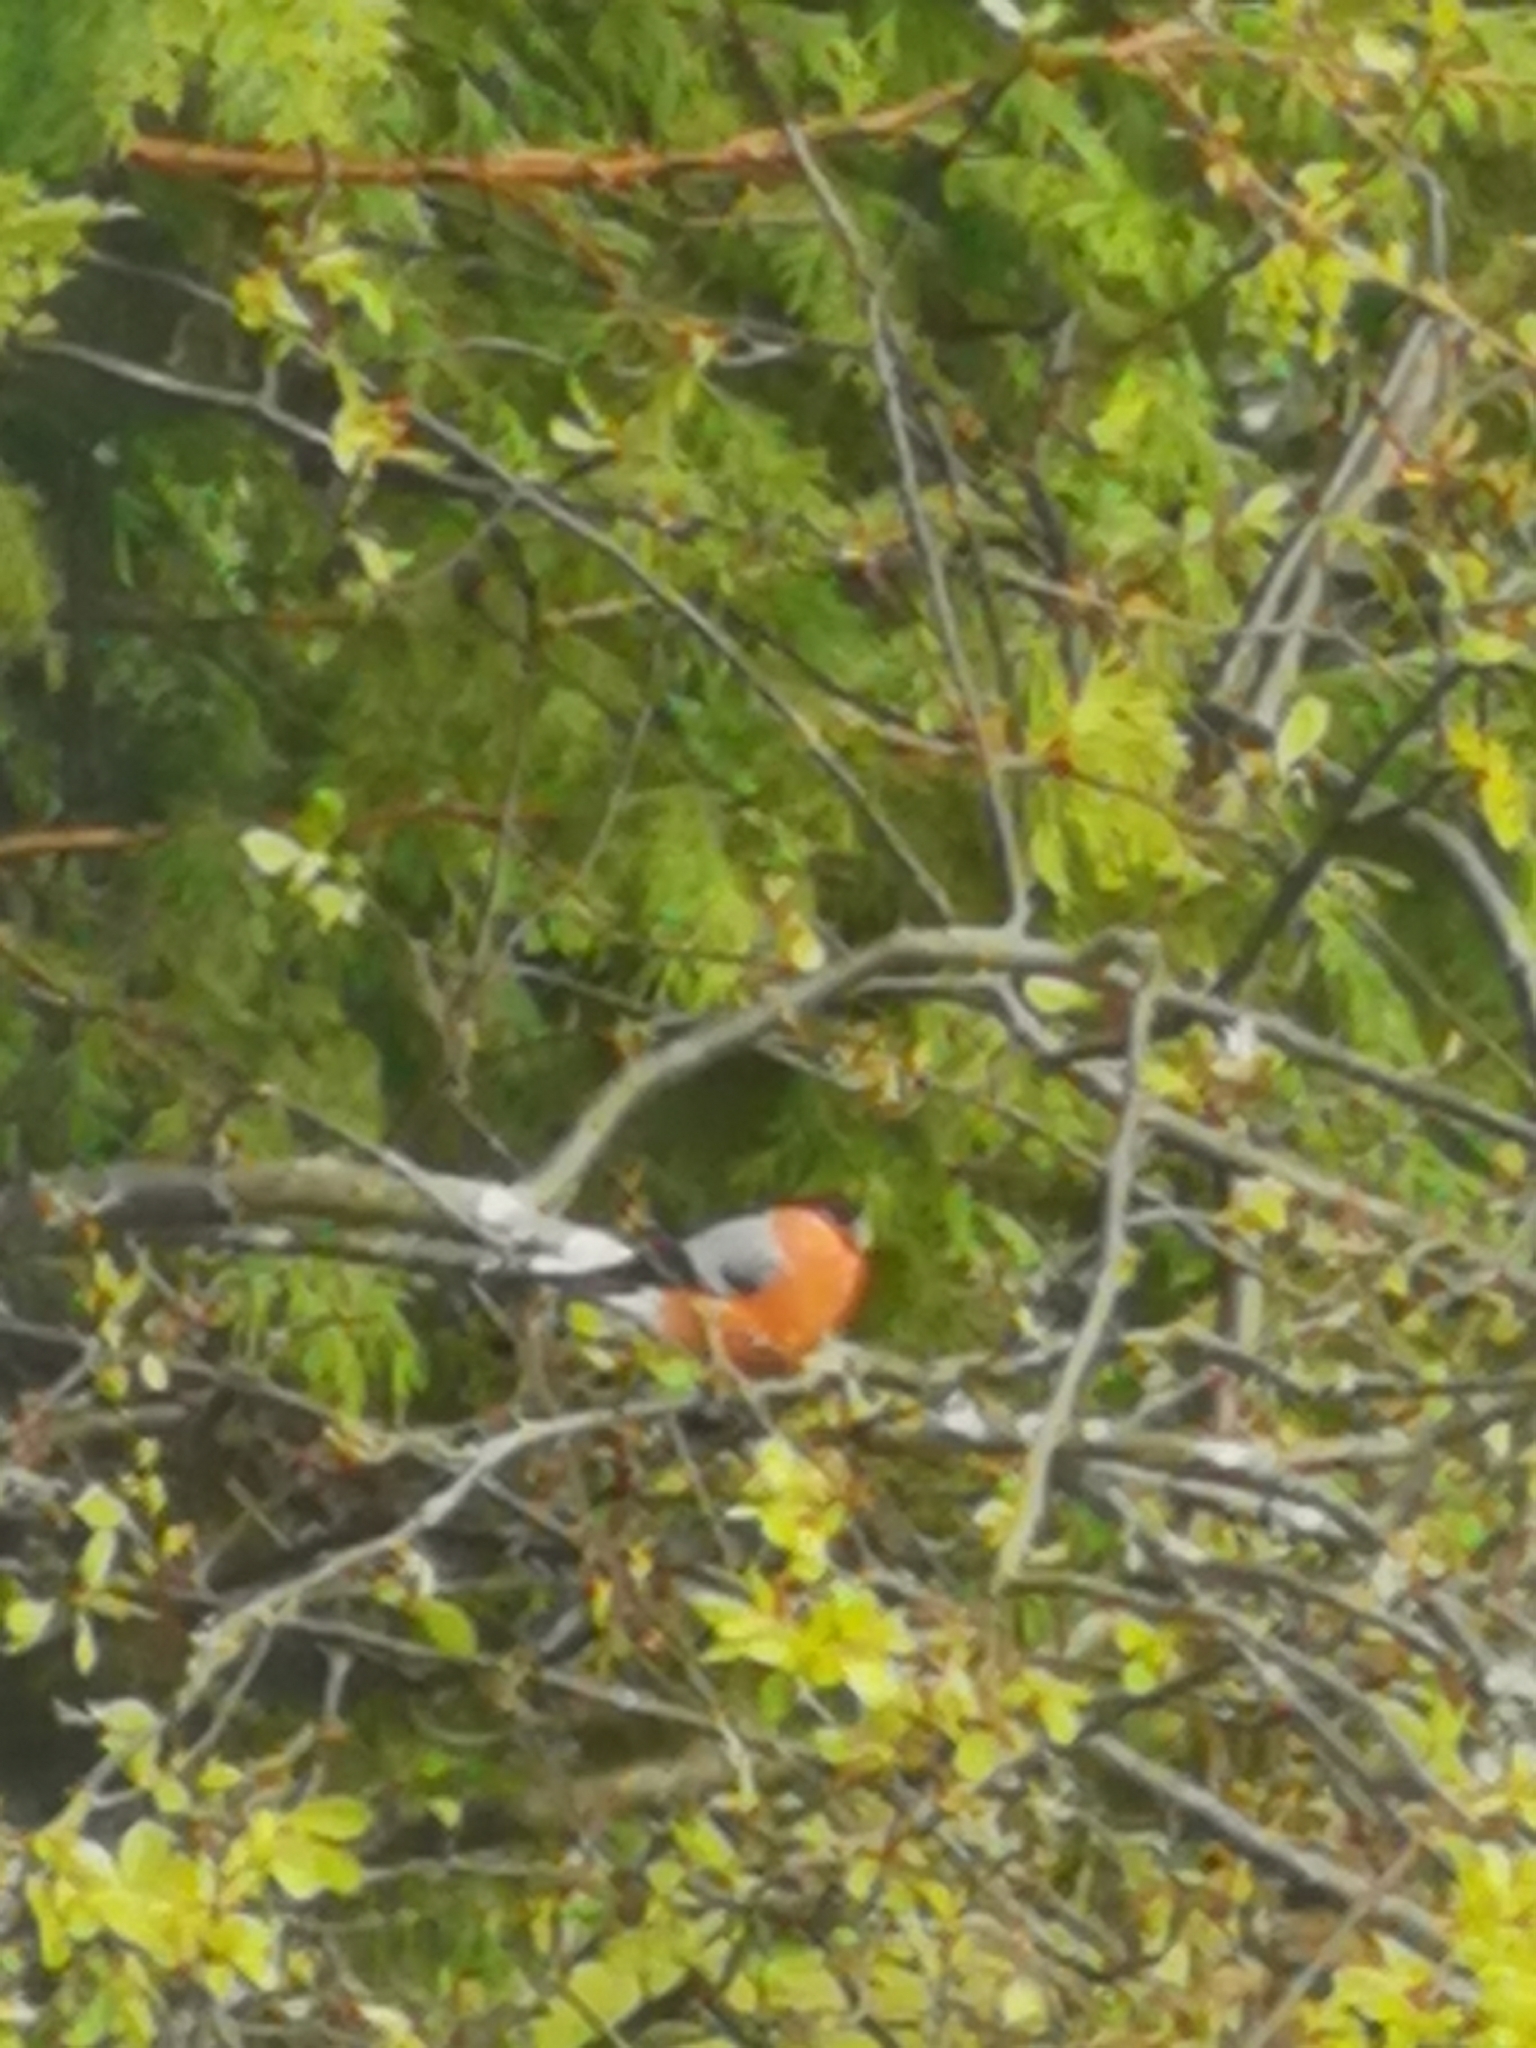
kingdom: Animalia
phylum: Chordata
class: Aves
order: Passeriformes
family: Fringillidae
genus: Pyrrhula
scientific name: Pyrrhula pyrrhula
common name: Eurasian bullfinch
